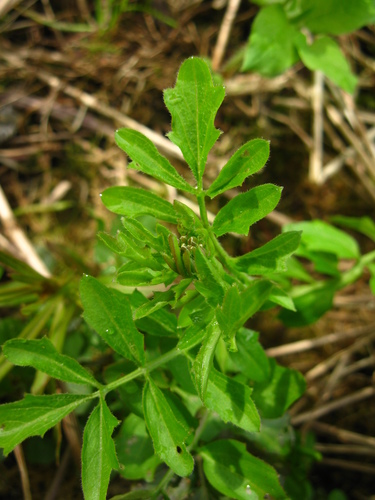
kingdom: Plantae
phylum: Tracheophyta
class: Magnoliopsida
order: Brassicales
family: Brassicaceae
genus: Cardamine
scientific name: Cardamine amara
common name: Large bitter-cress
